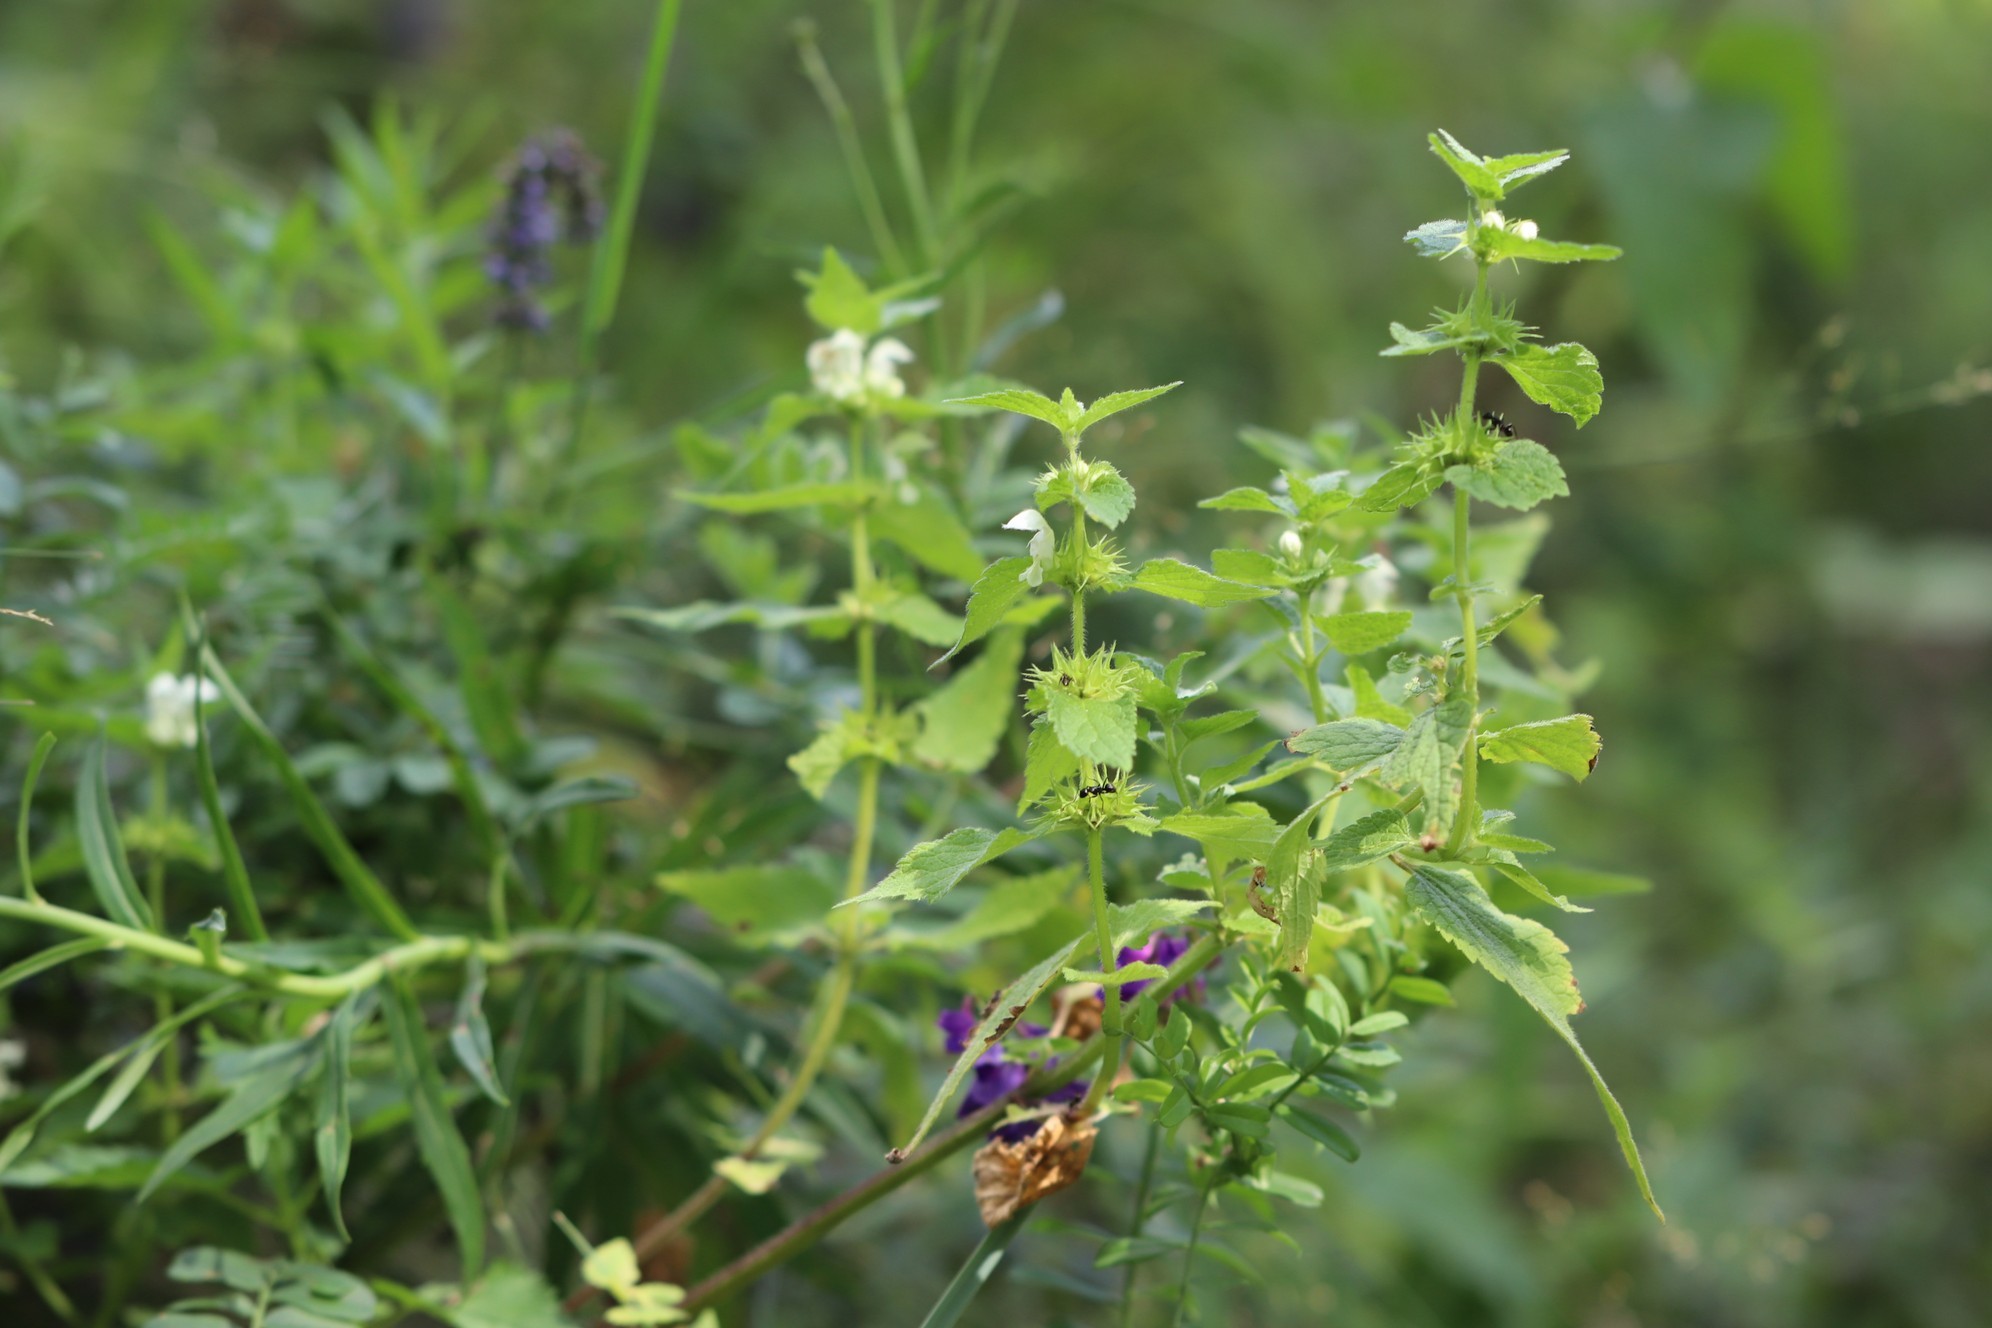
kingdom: Plantae
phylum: Tracheophyta
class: Magnoliopsida
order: Lamiales
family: Lamiaceae
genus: Lamium
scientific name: Lamium album
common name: White dead-nettle
